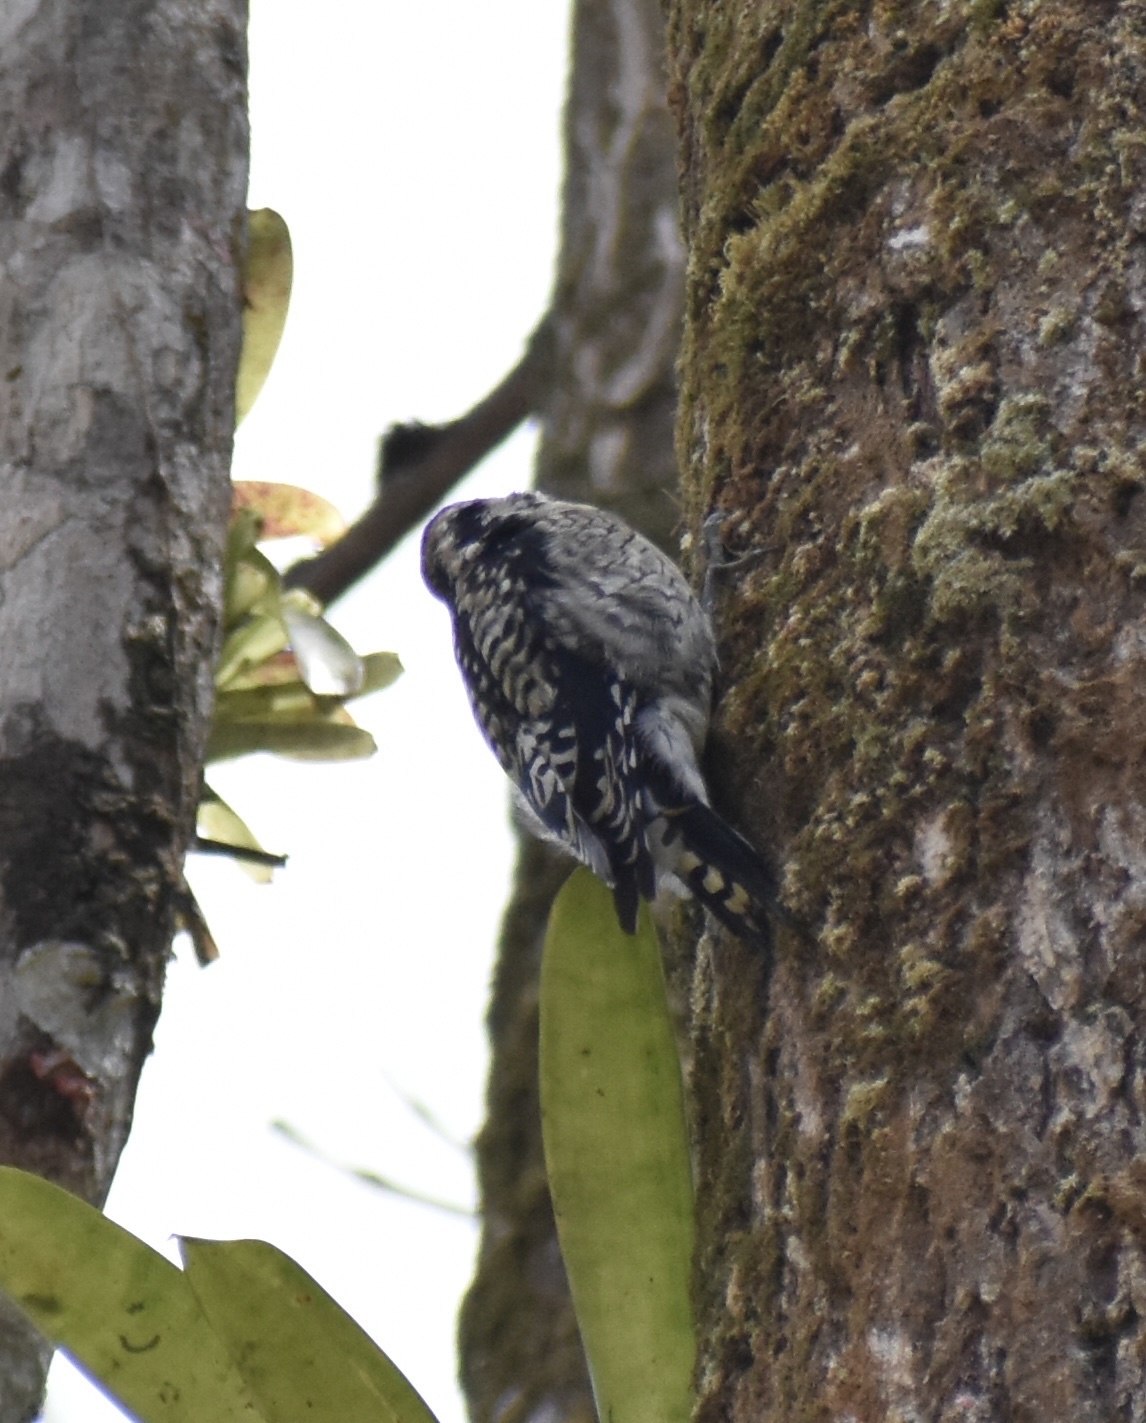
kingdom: Animalia
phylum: Chordata
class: Aves
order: Piciformes
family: Picidae
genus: Sphyrapicus
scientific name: Sphyrapicus varius
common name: Yellow-bellied sapsucker
